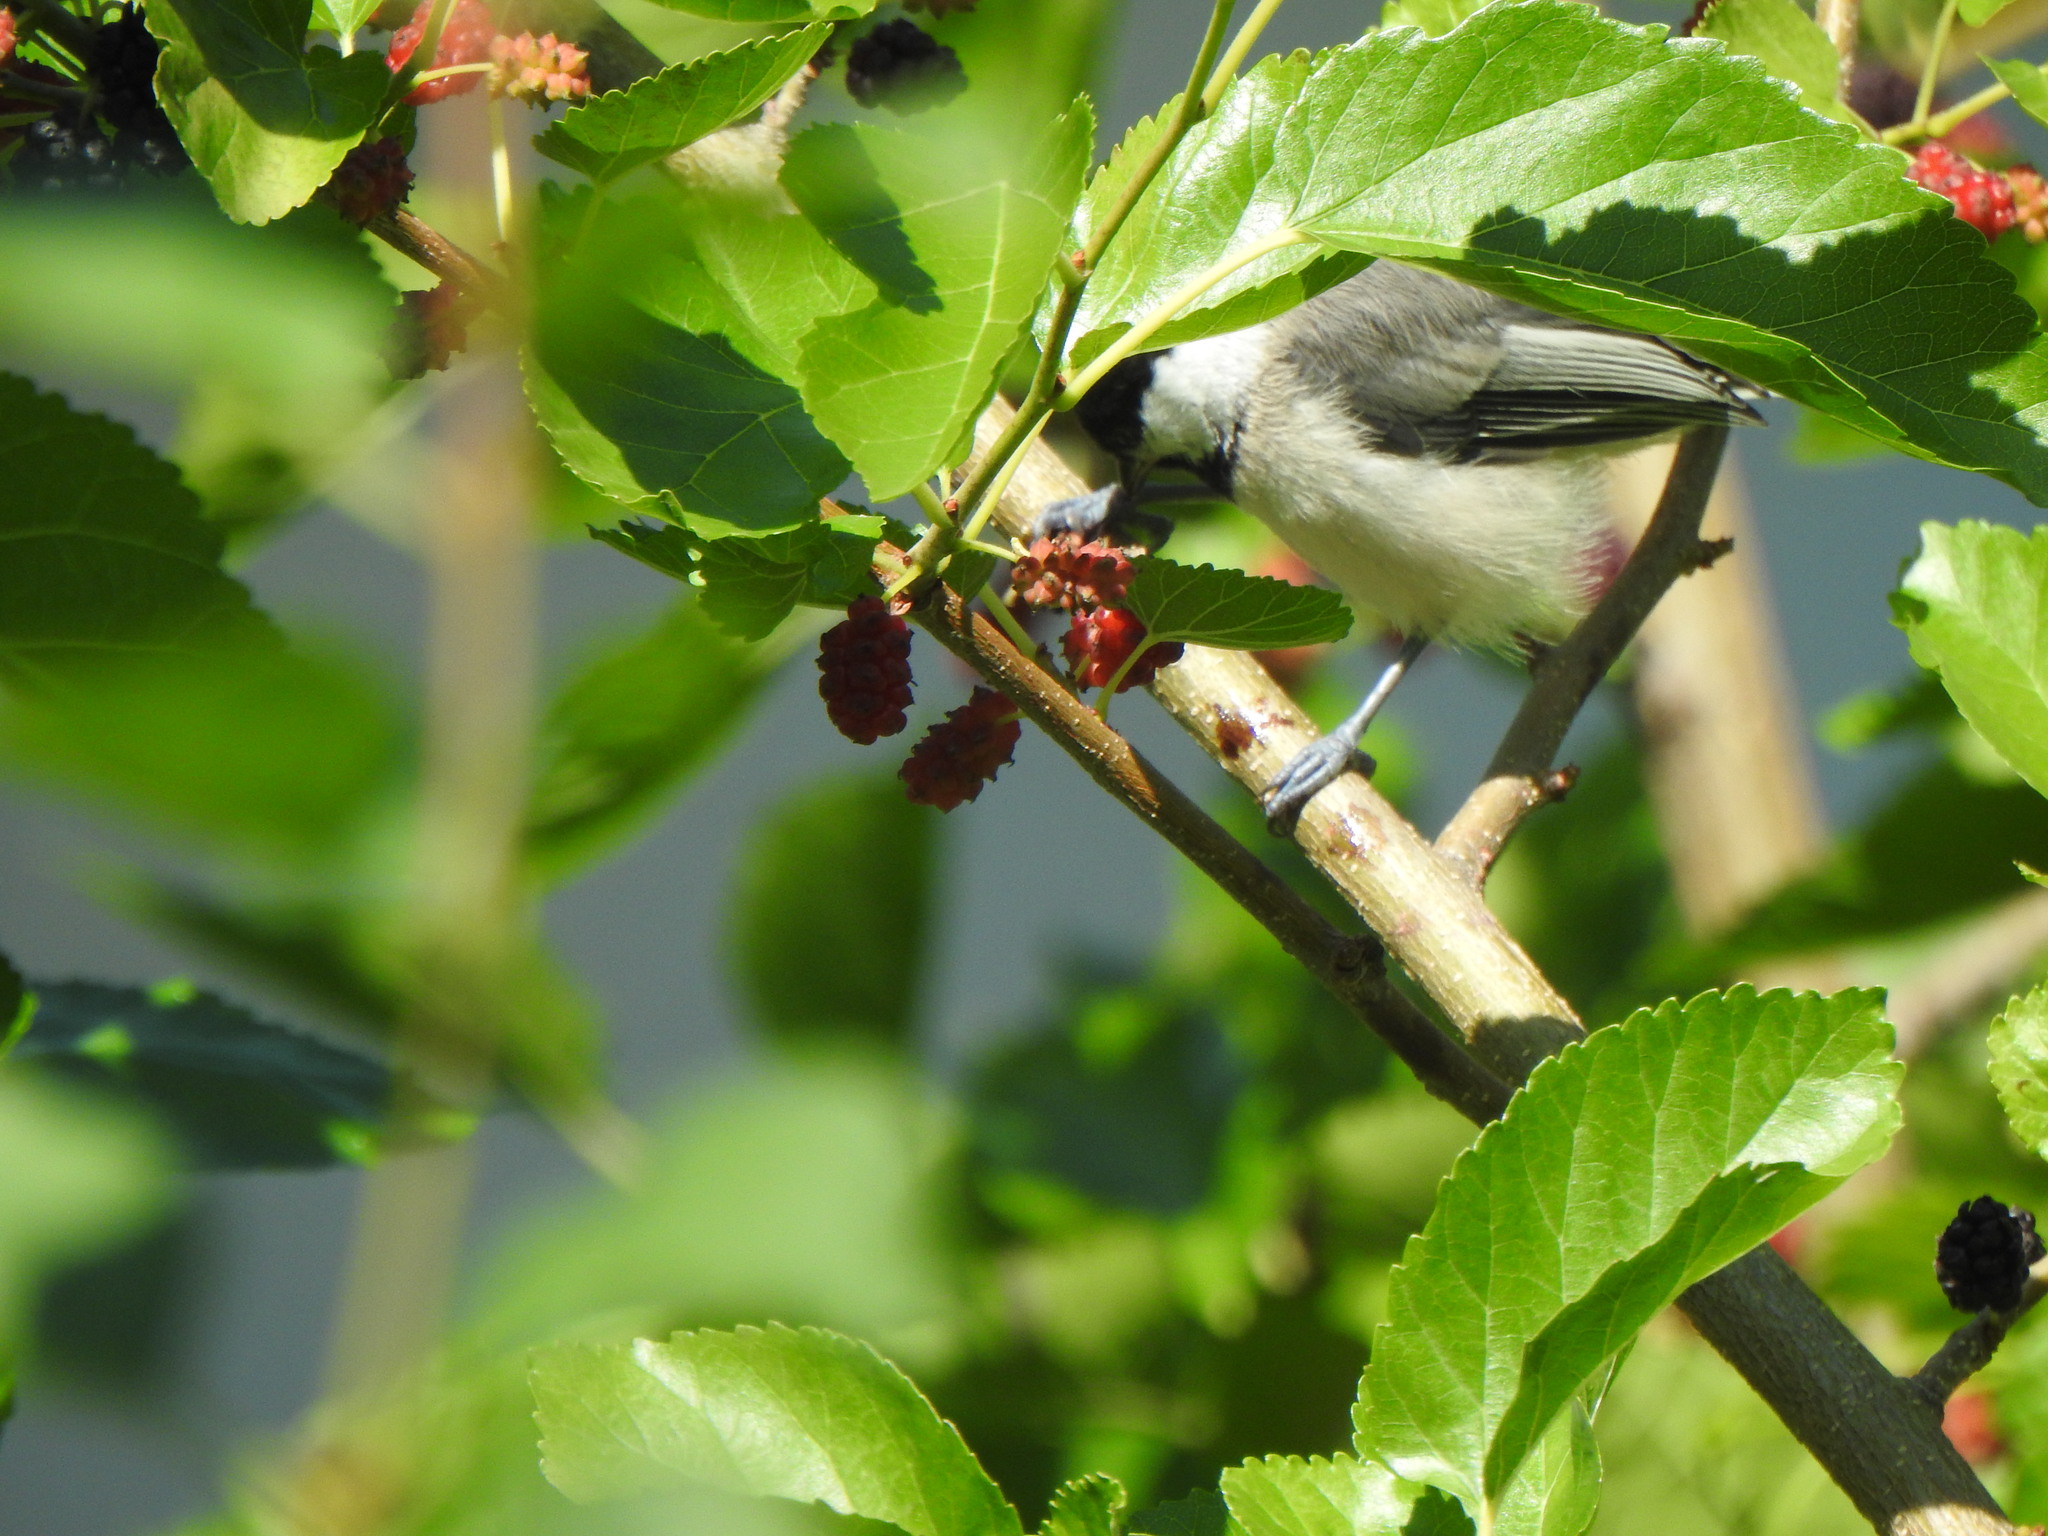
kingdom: Animalia
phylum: Chordata
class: Aves
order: Passeriformes
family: Paridae
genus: Poecile
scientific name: Poecile atricapillus
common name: Black-capped chickadee
